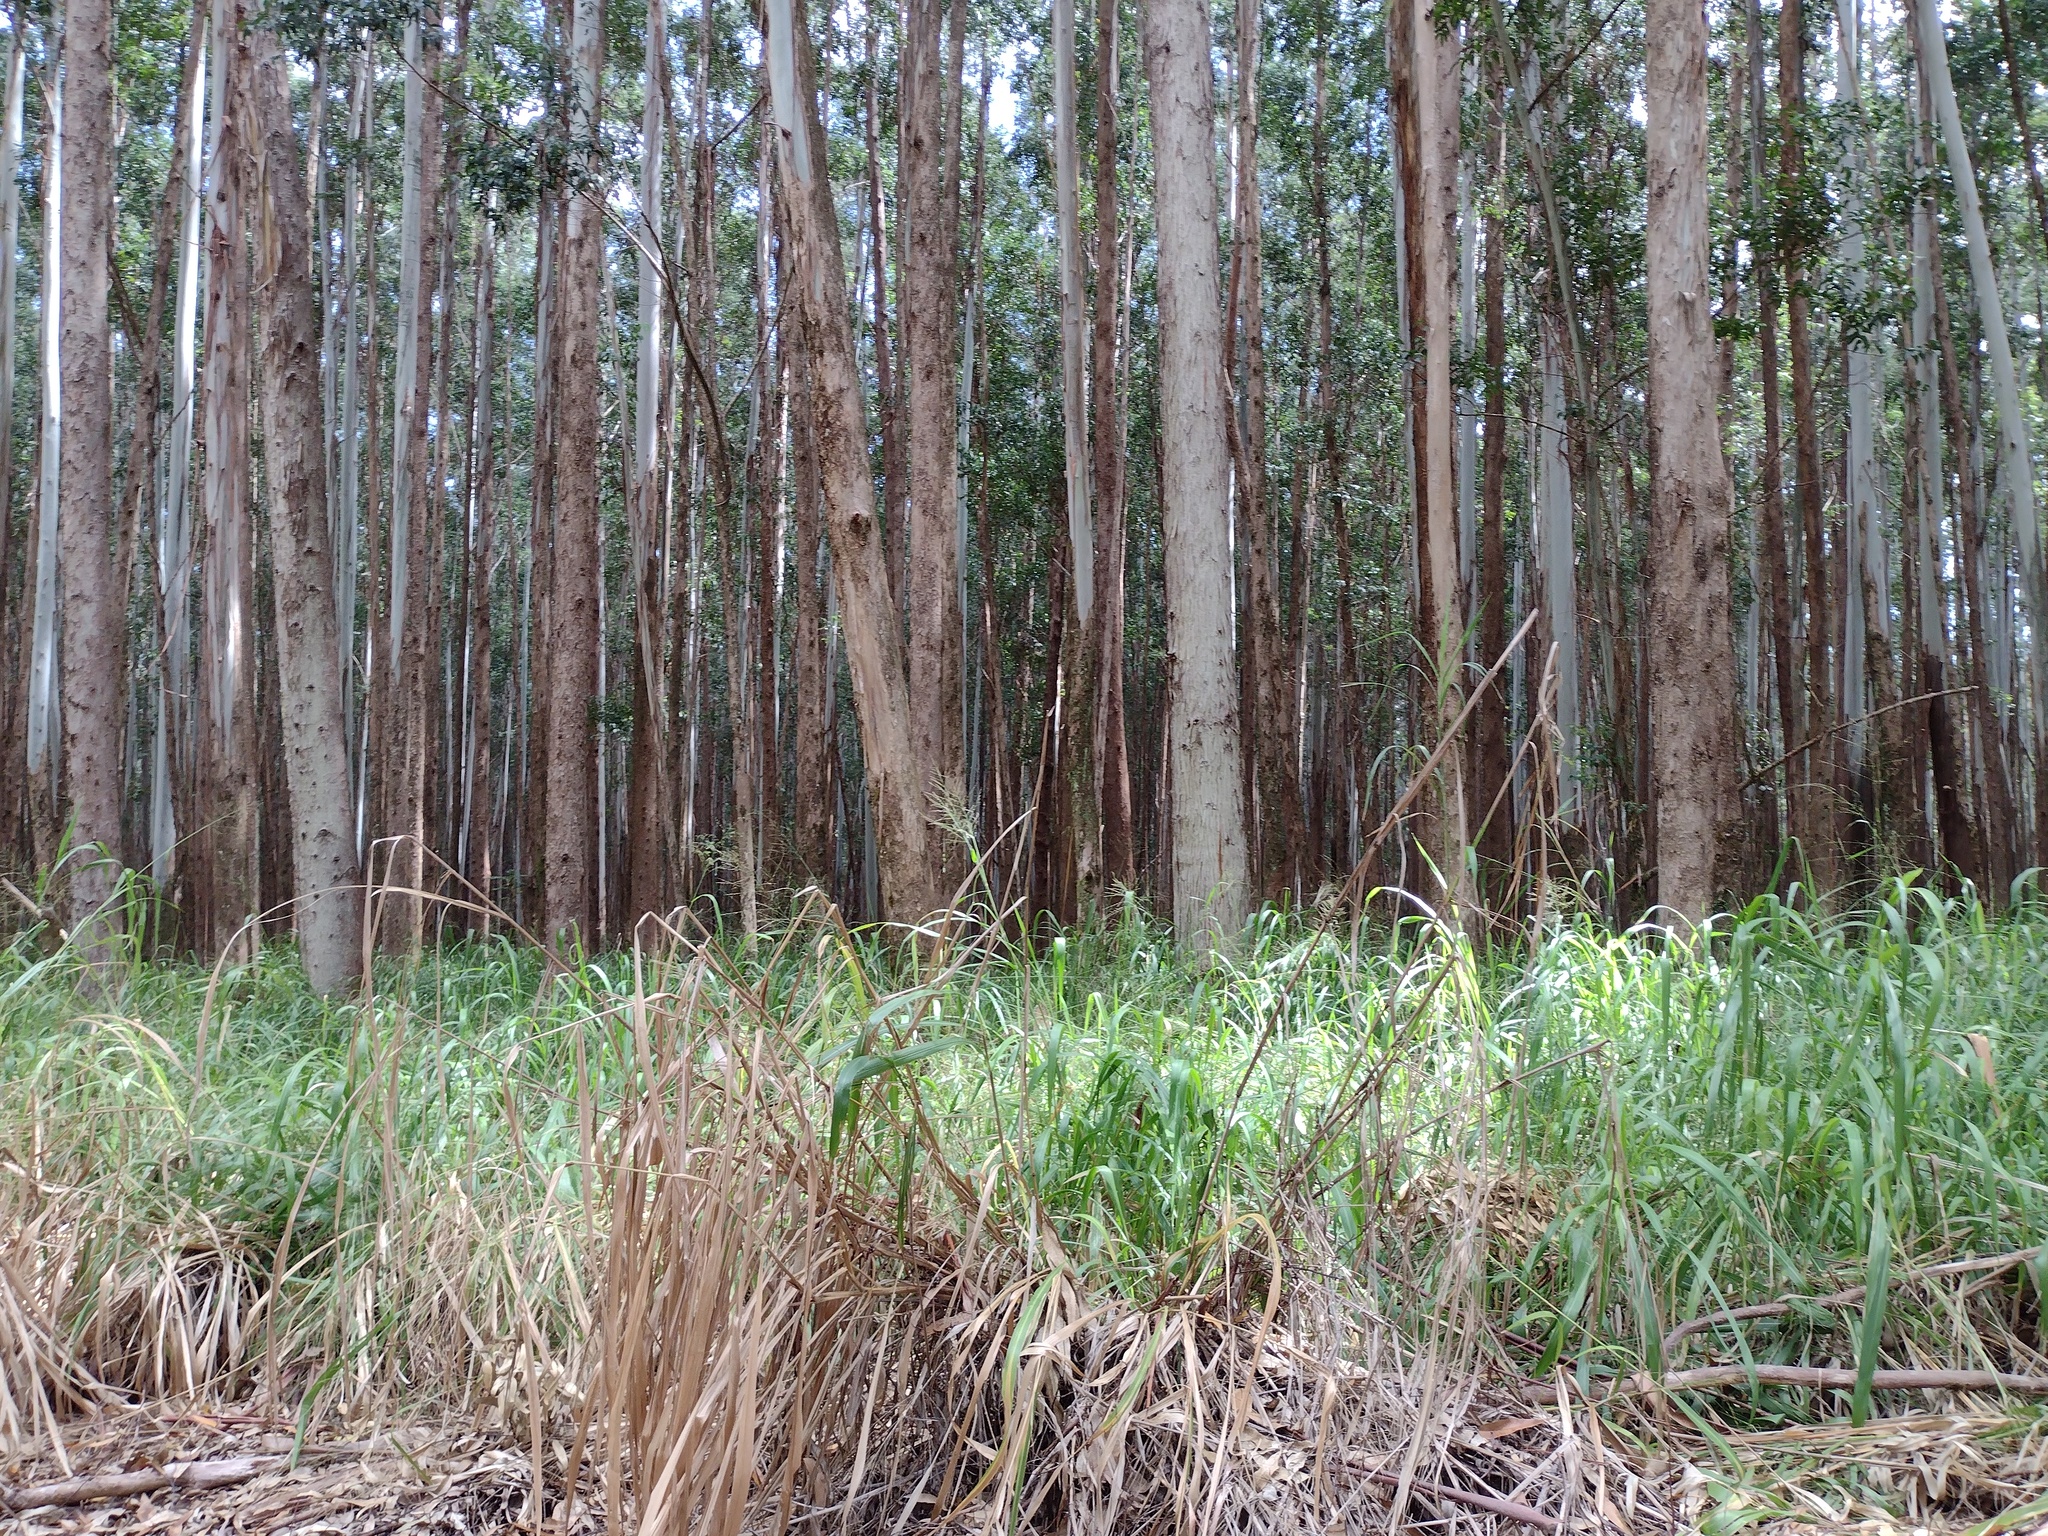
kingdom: Plantae
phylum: Tracheophyta
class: Liliopsida
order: Poales
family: Poaceae
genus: Megathyrsus
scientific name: Megathyrsus maximus
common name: Guineagrass
